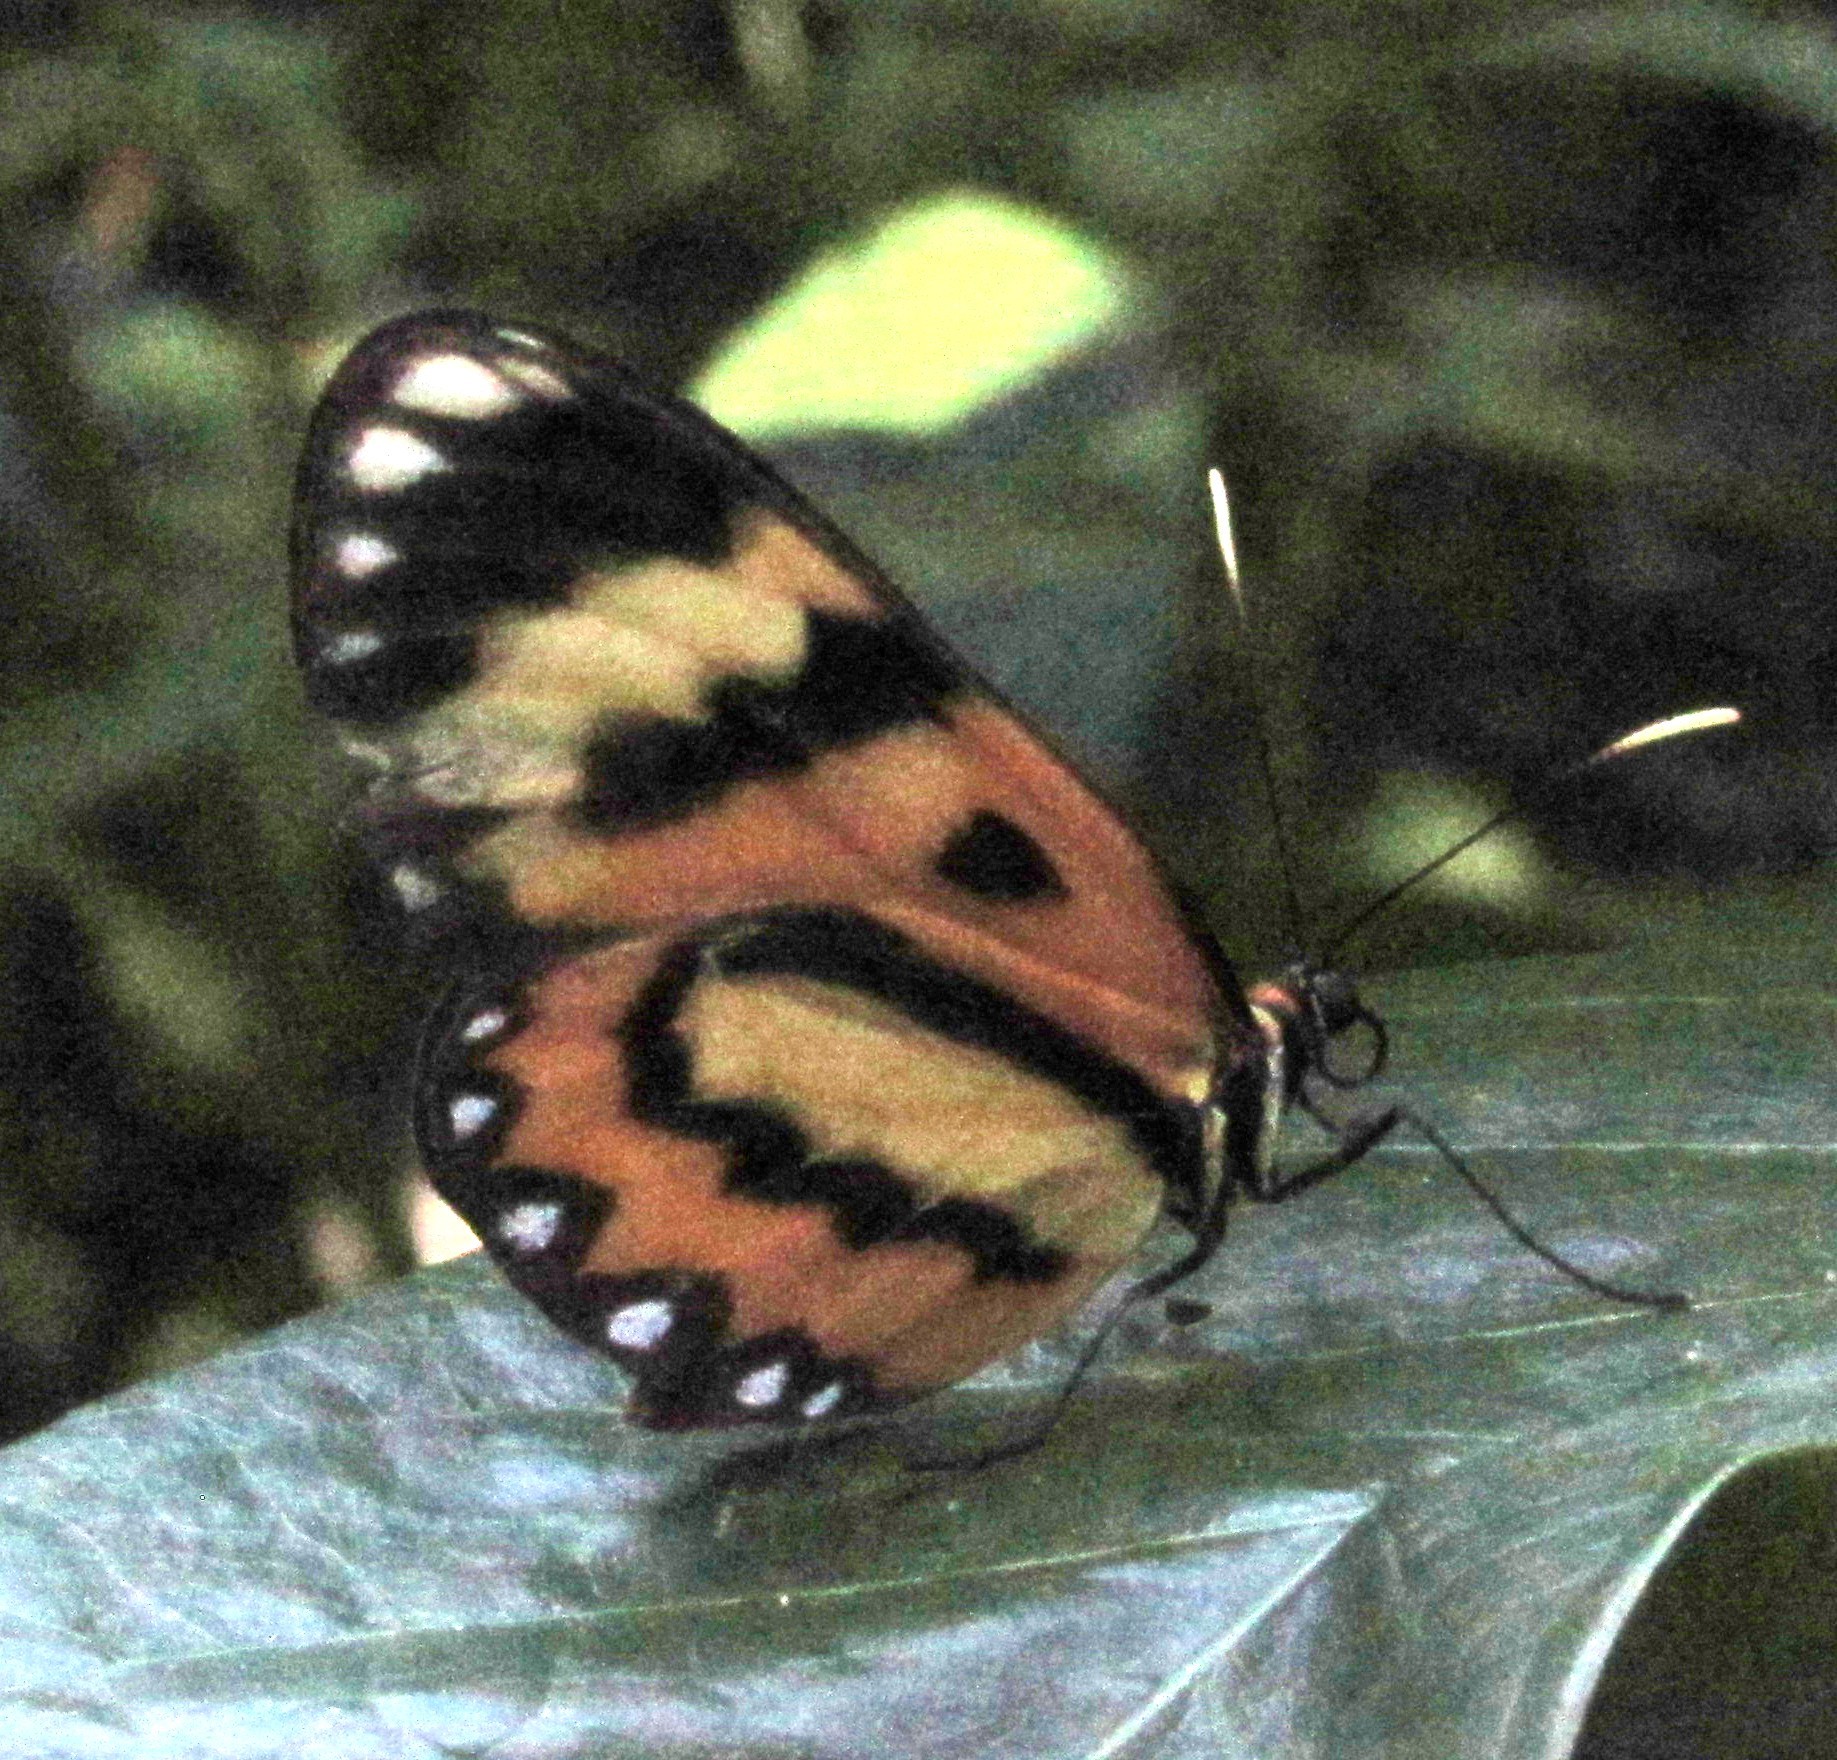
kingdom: Animalia
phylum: Arthropoda
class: Insecta
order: Lepidoptera
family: Nymphalidae
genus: Placidina
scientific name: Placidina euryanassa
